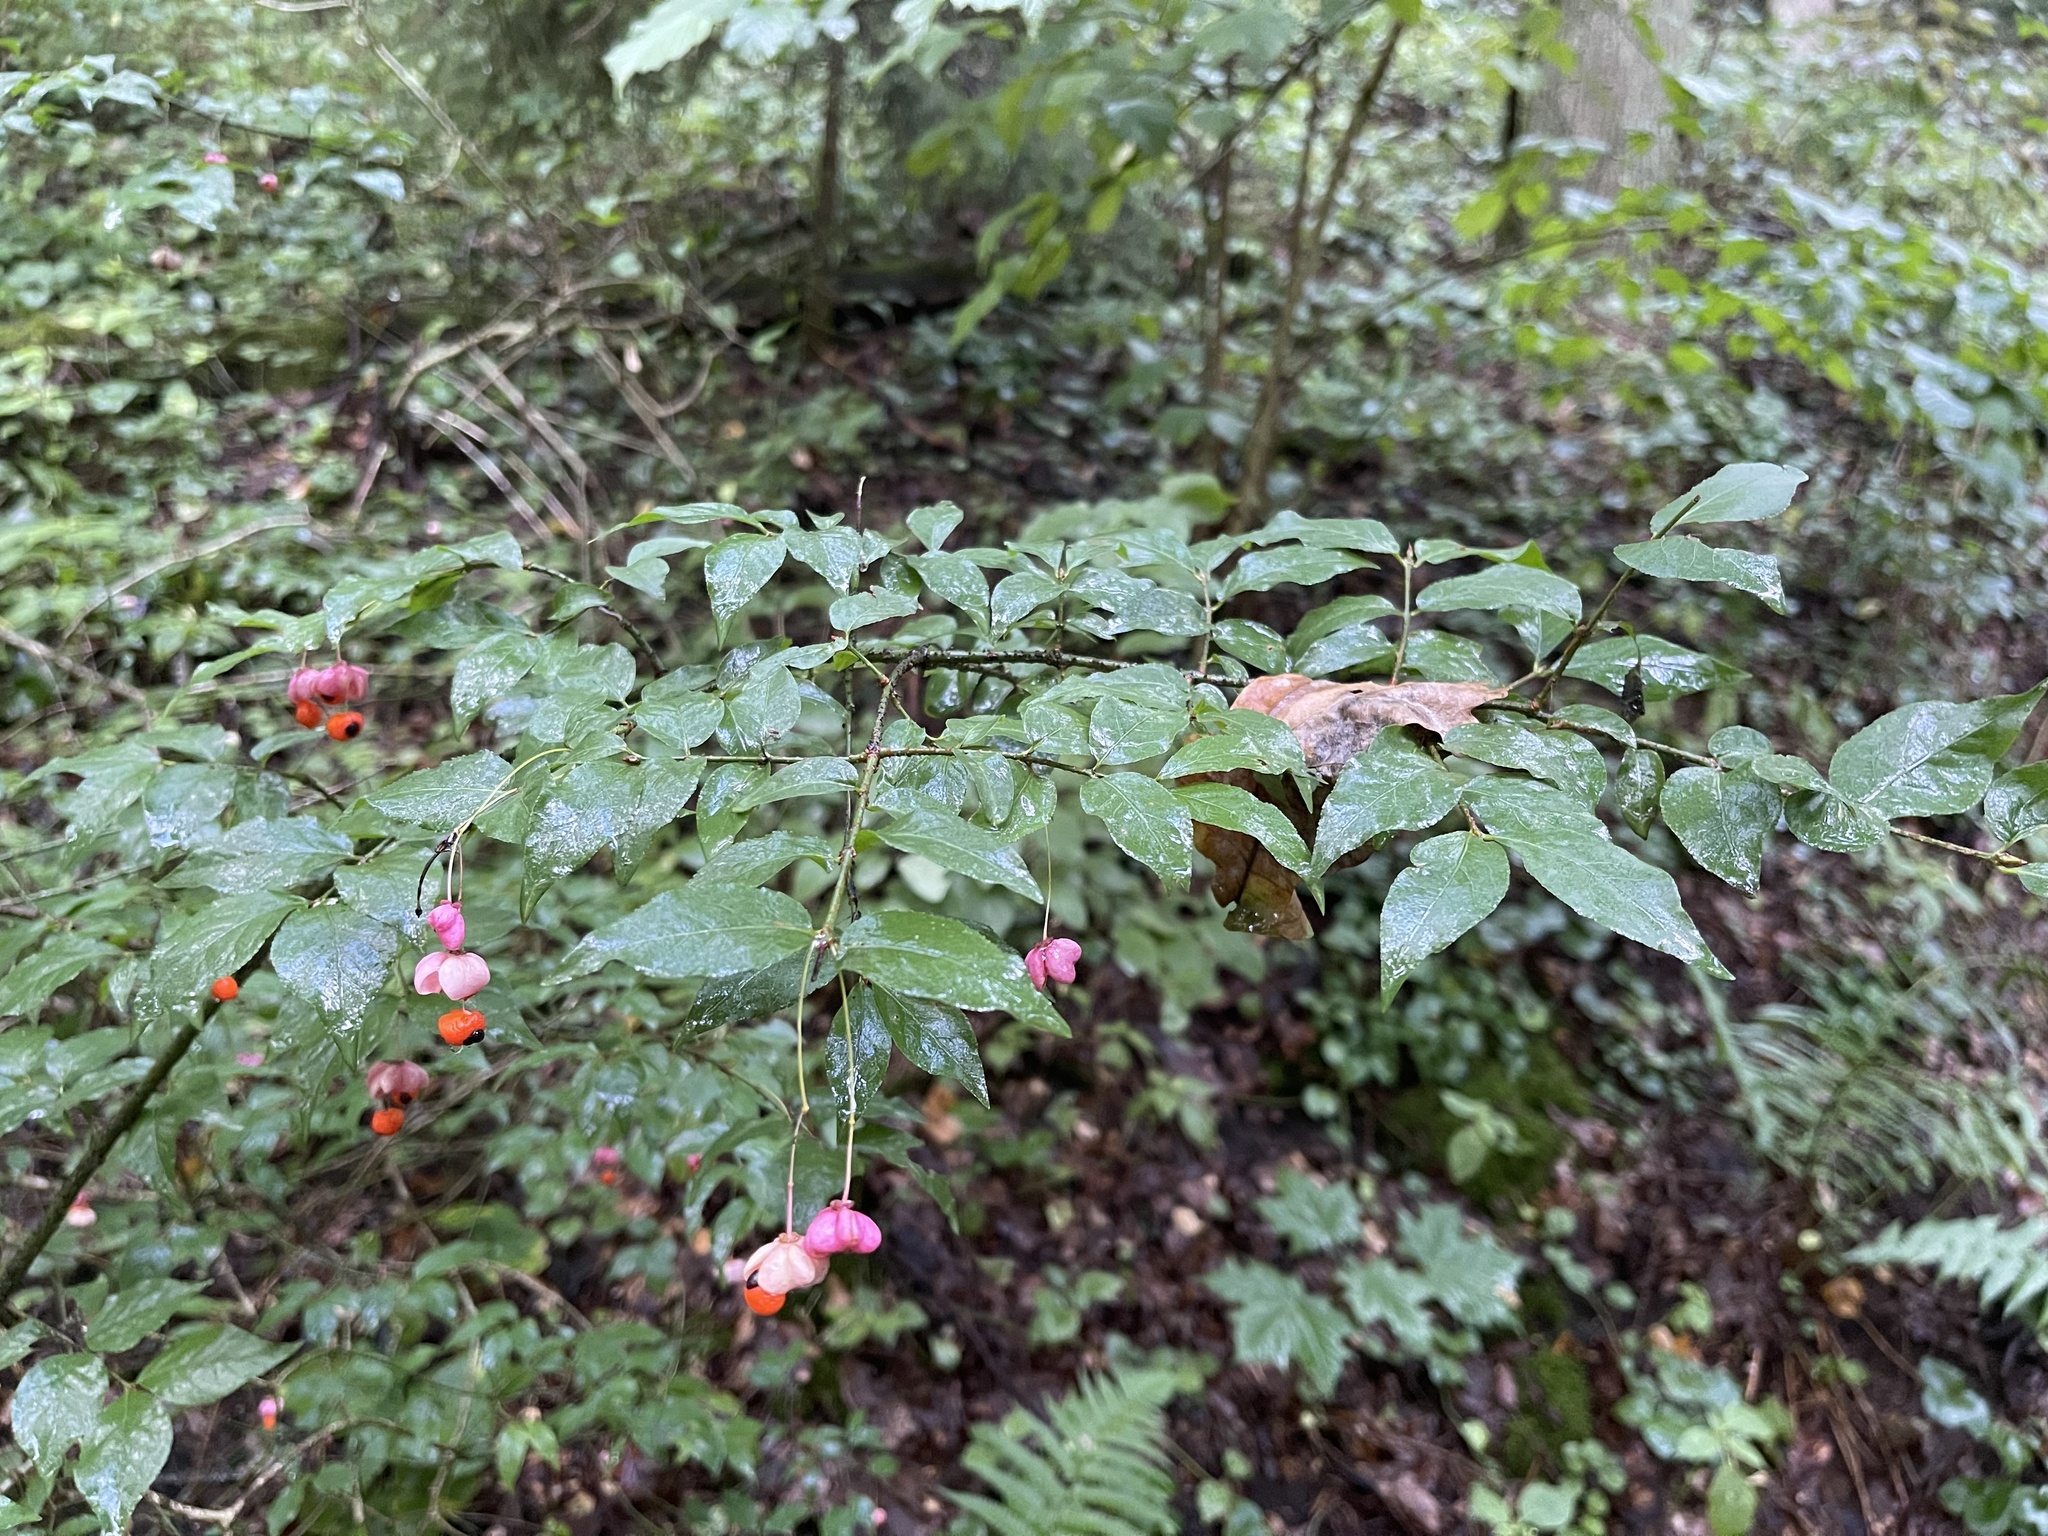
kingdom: Plantae
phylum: Tracheophyta
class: Magnoliopsida
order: Celastrales
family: Celastraceae
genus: Euonymus
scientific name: Euonymus verrucosus
